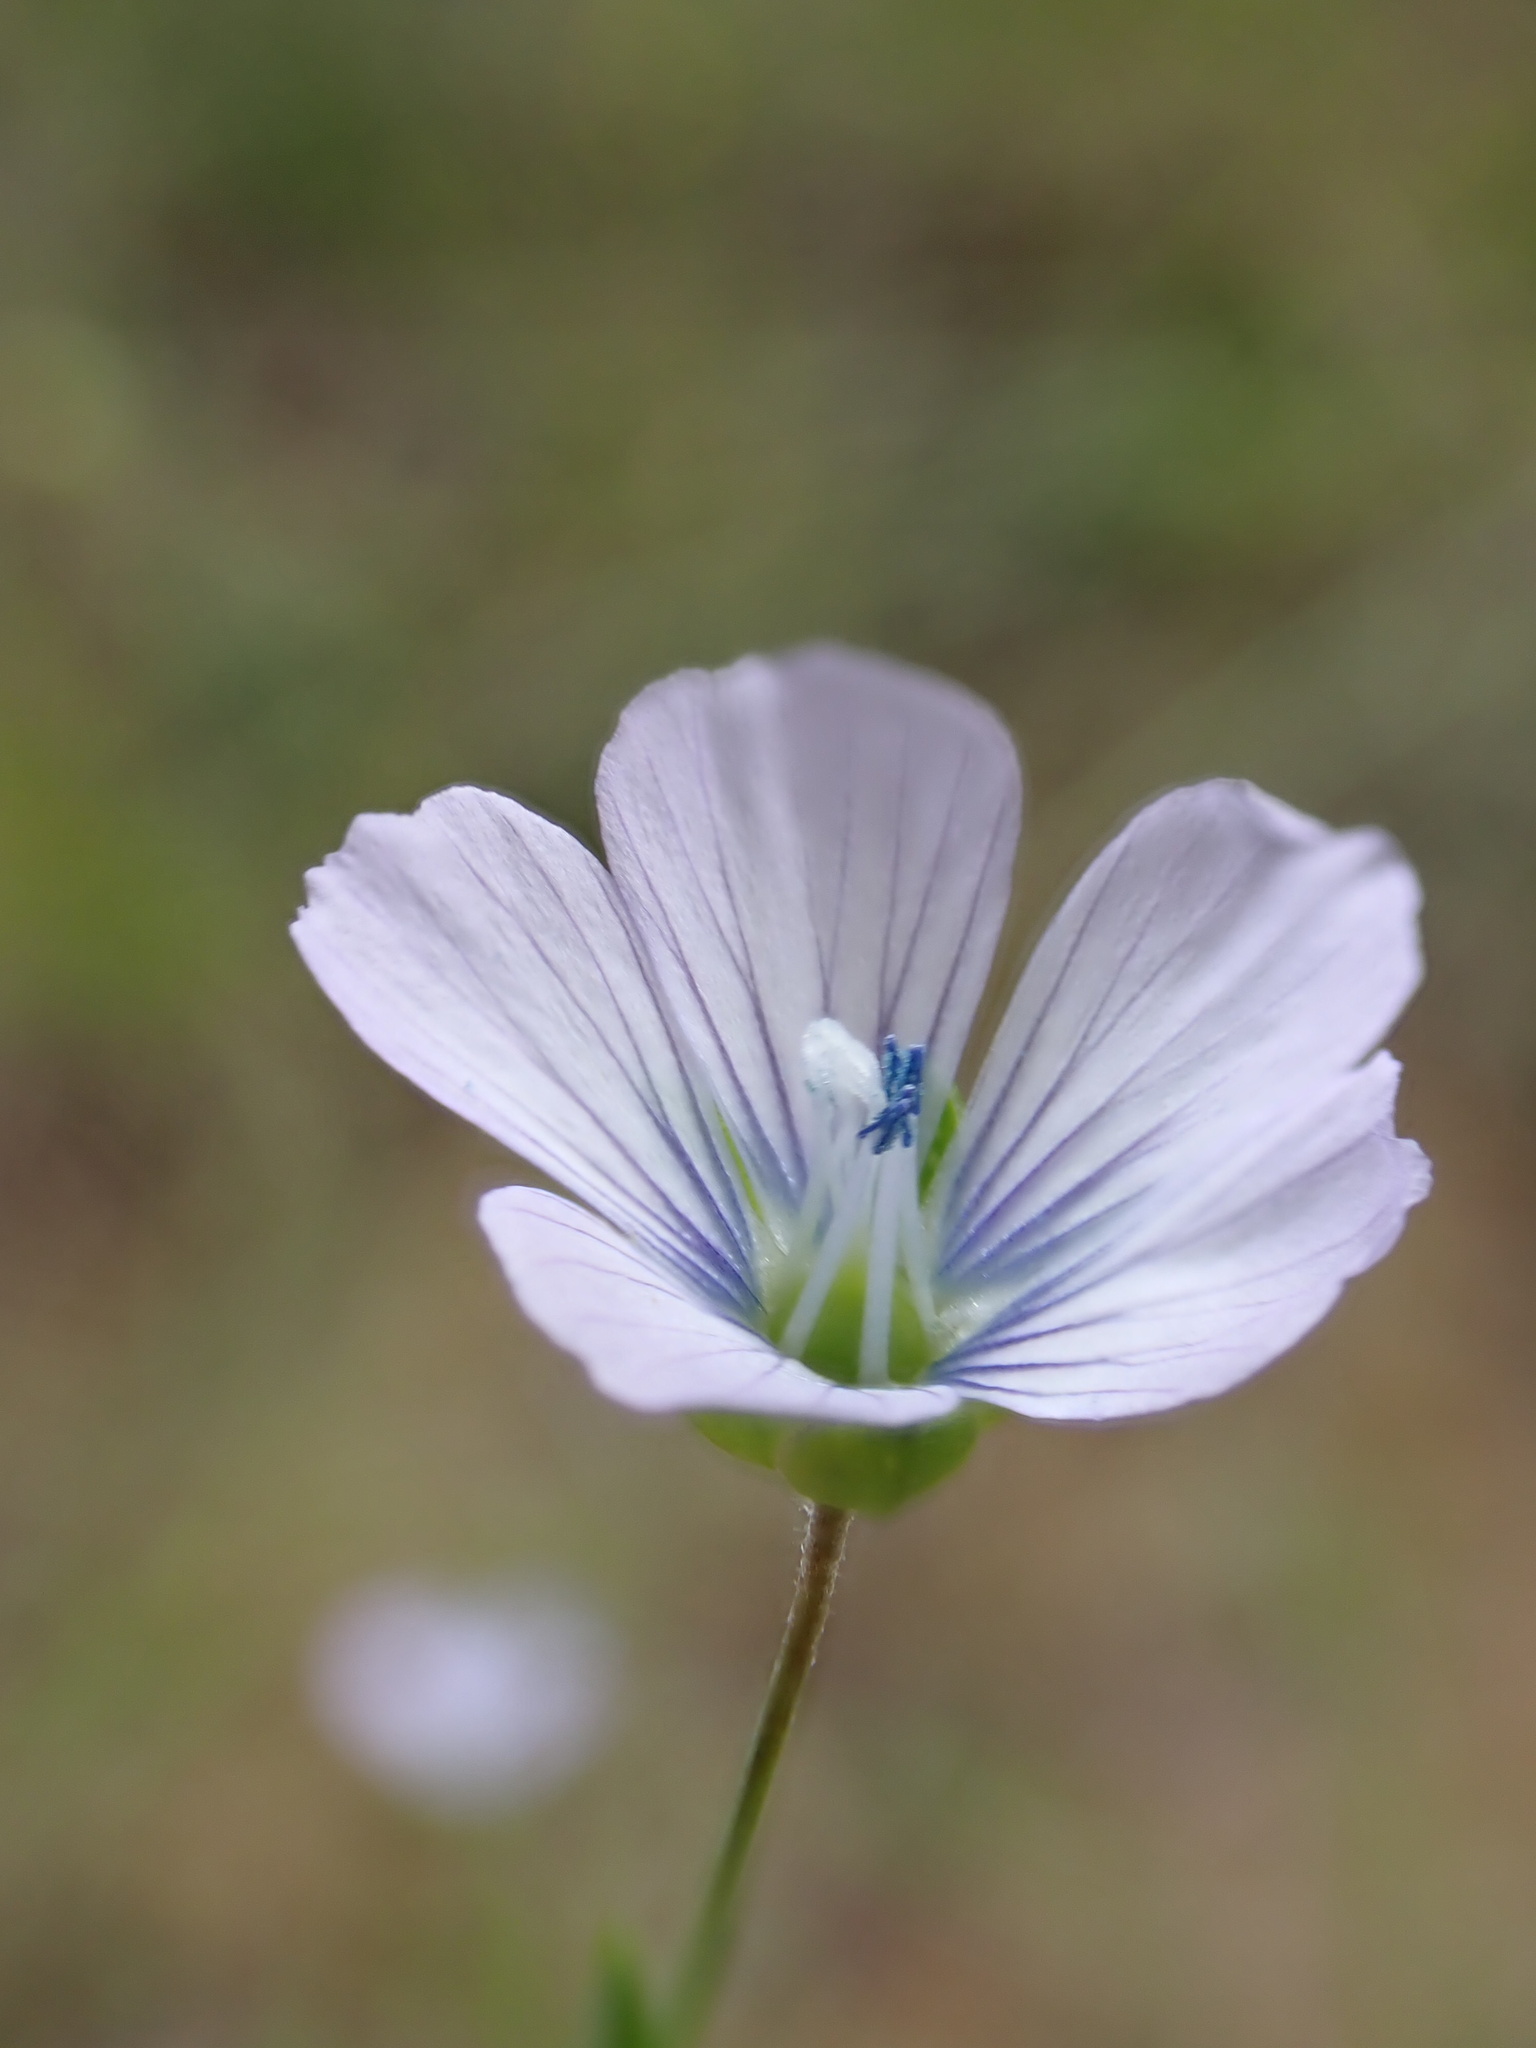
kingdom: Plantae
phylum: Tracheophyta
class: Magnoliopsida
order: Malpighiales
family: Linaceae
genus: Linum
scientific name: Linum bienne
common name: Pale flax
